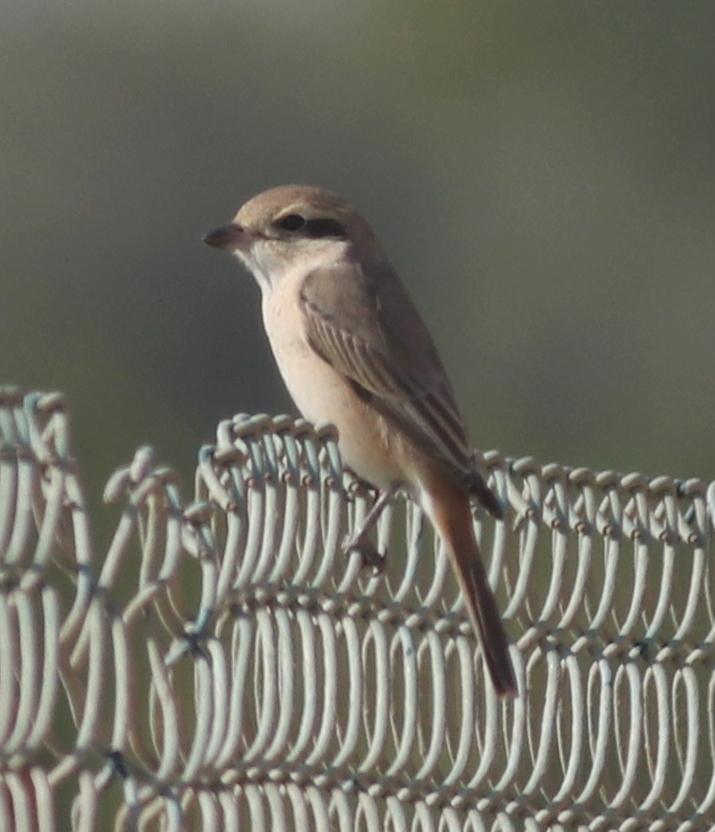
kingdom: Animalia
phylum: Chordata
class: Aves
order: Passeriformes
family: Laniidae
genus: Lanius
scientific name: Lanius isabellinus
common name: Isabelline shrike
